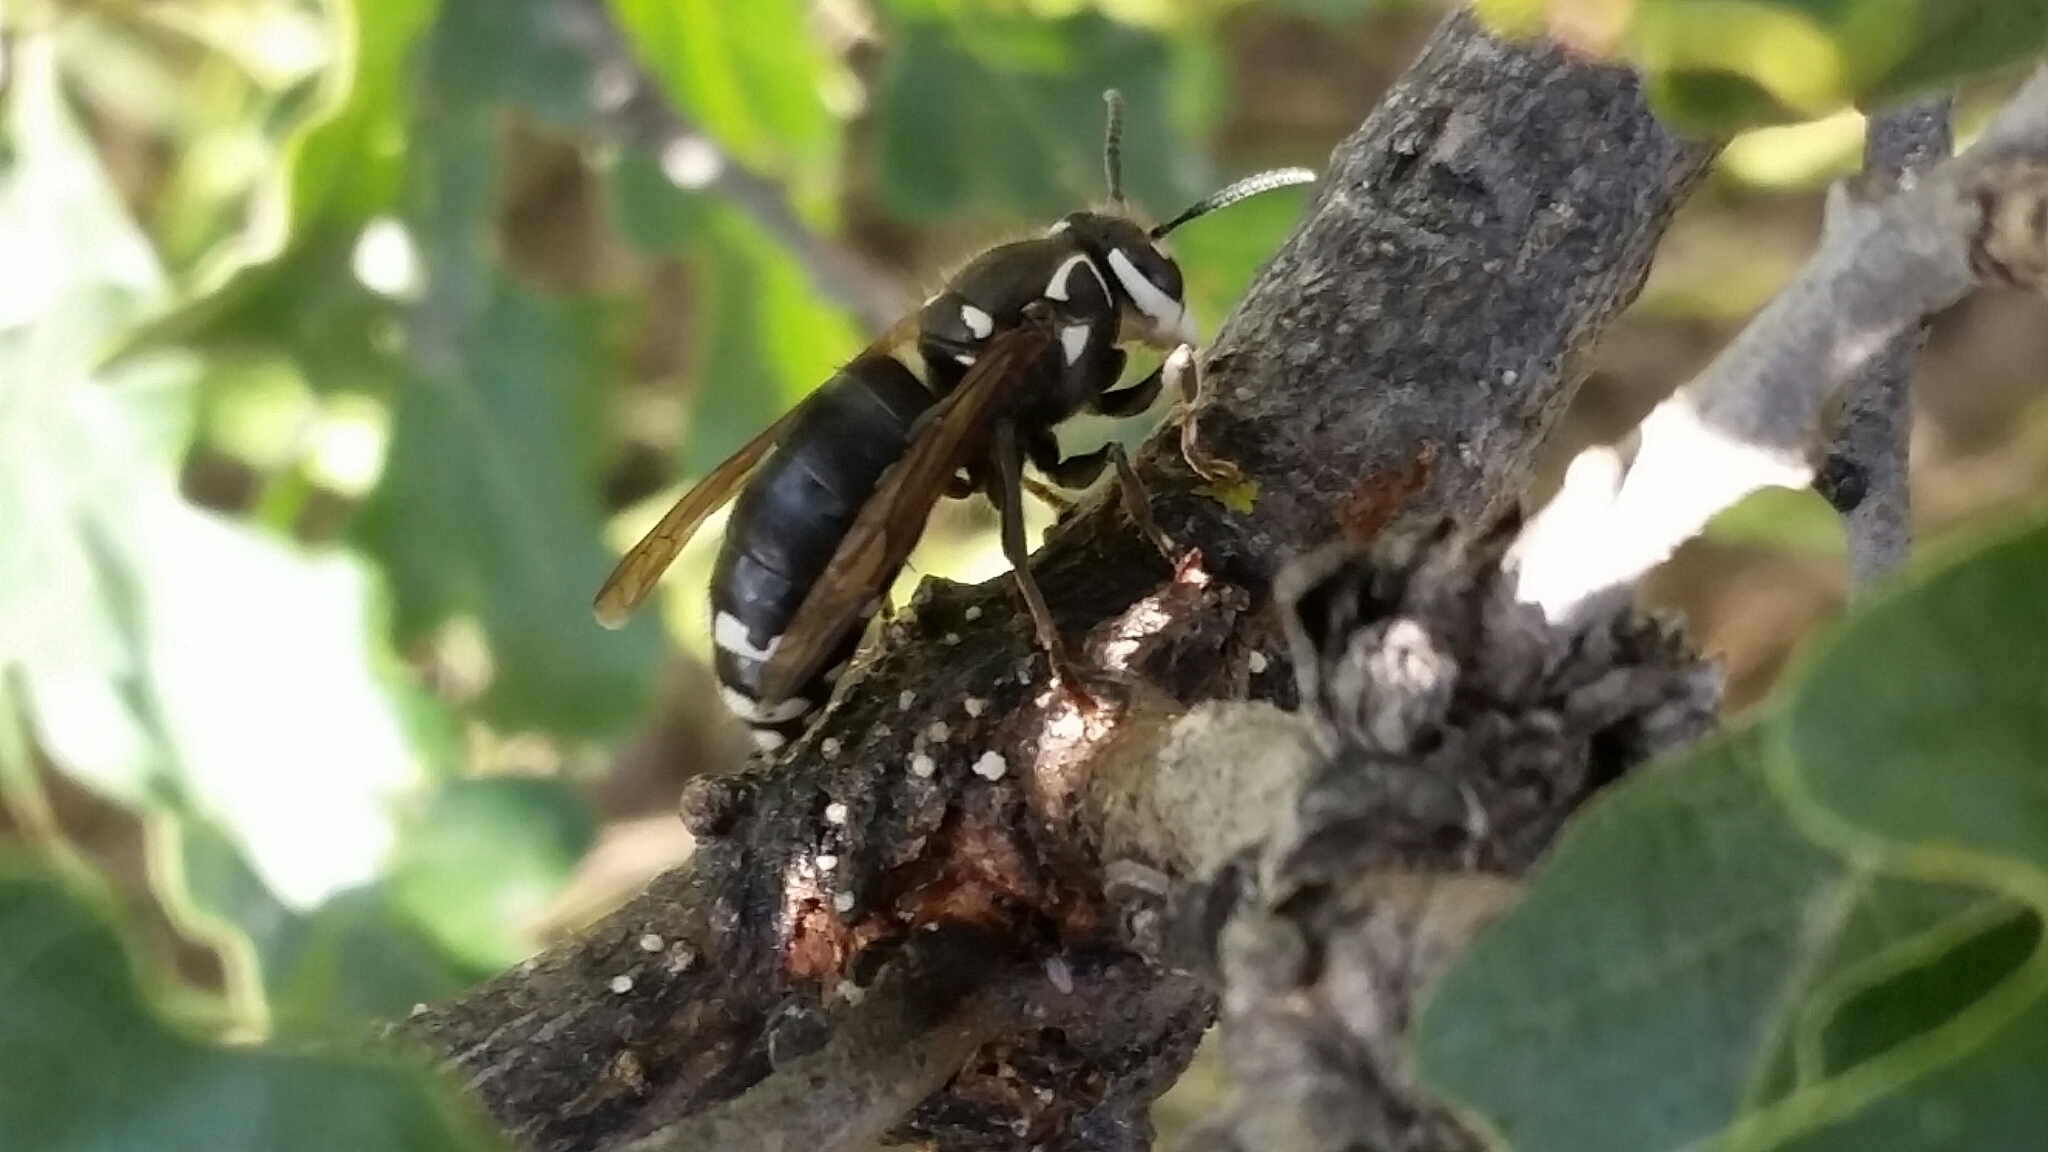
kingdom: Animalia
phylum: Arthropoda
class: Insecta
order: Hymenoptera
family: Vespidae
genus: Dolichovespula
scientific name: Dolichovespula maculata
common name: Bald-faced hornet
